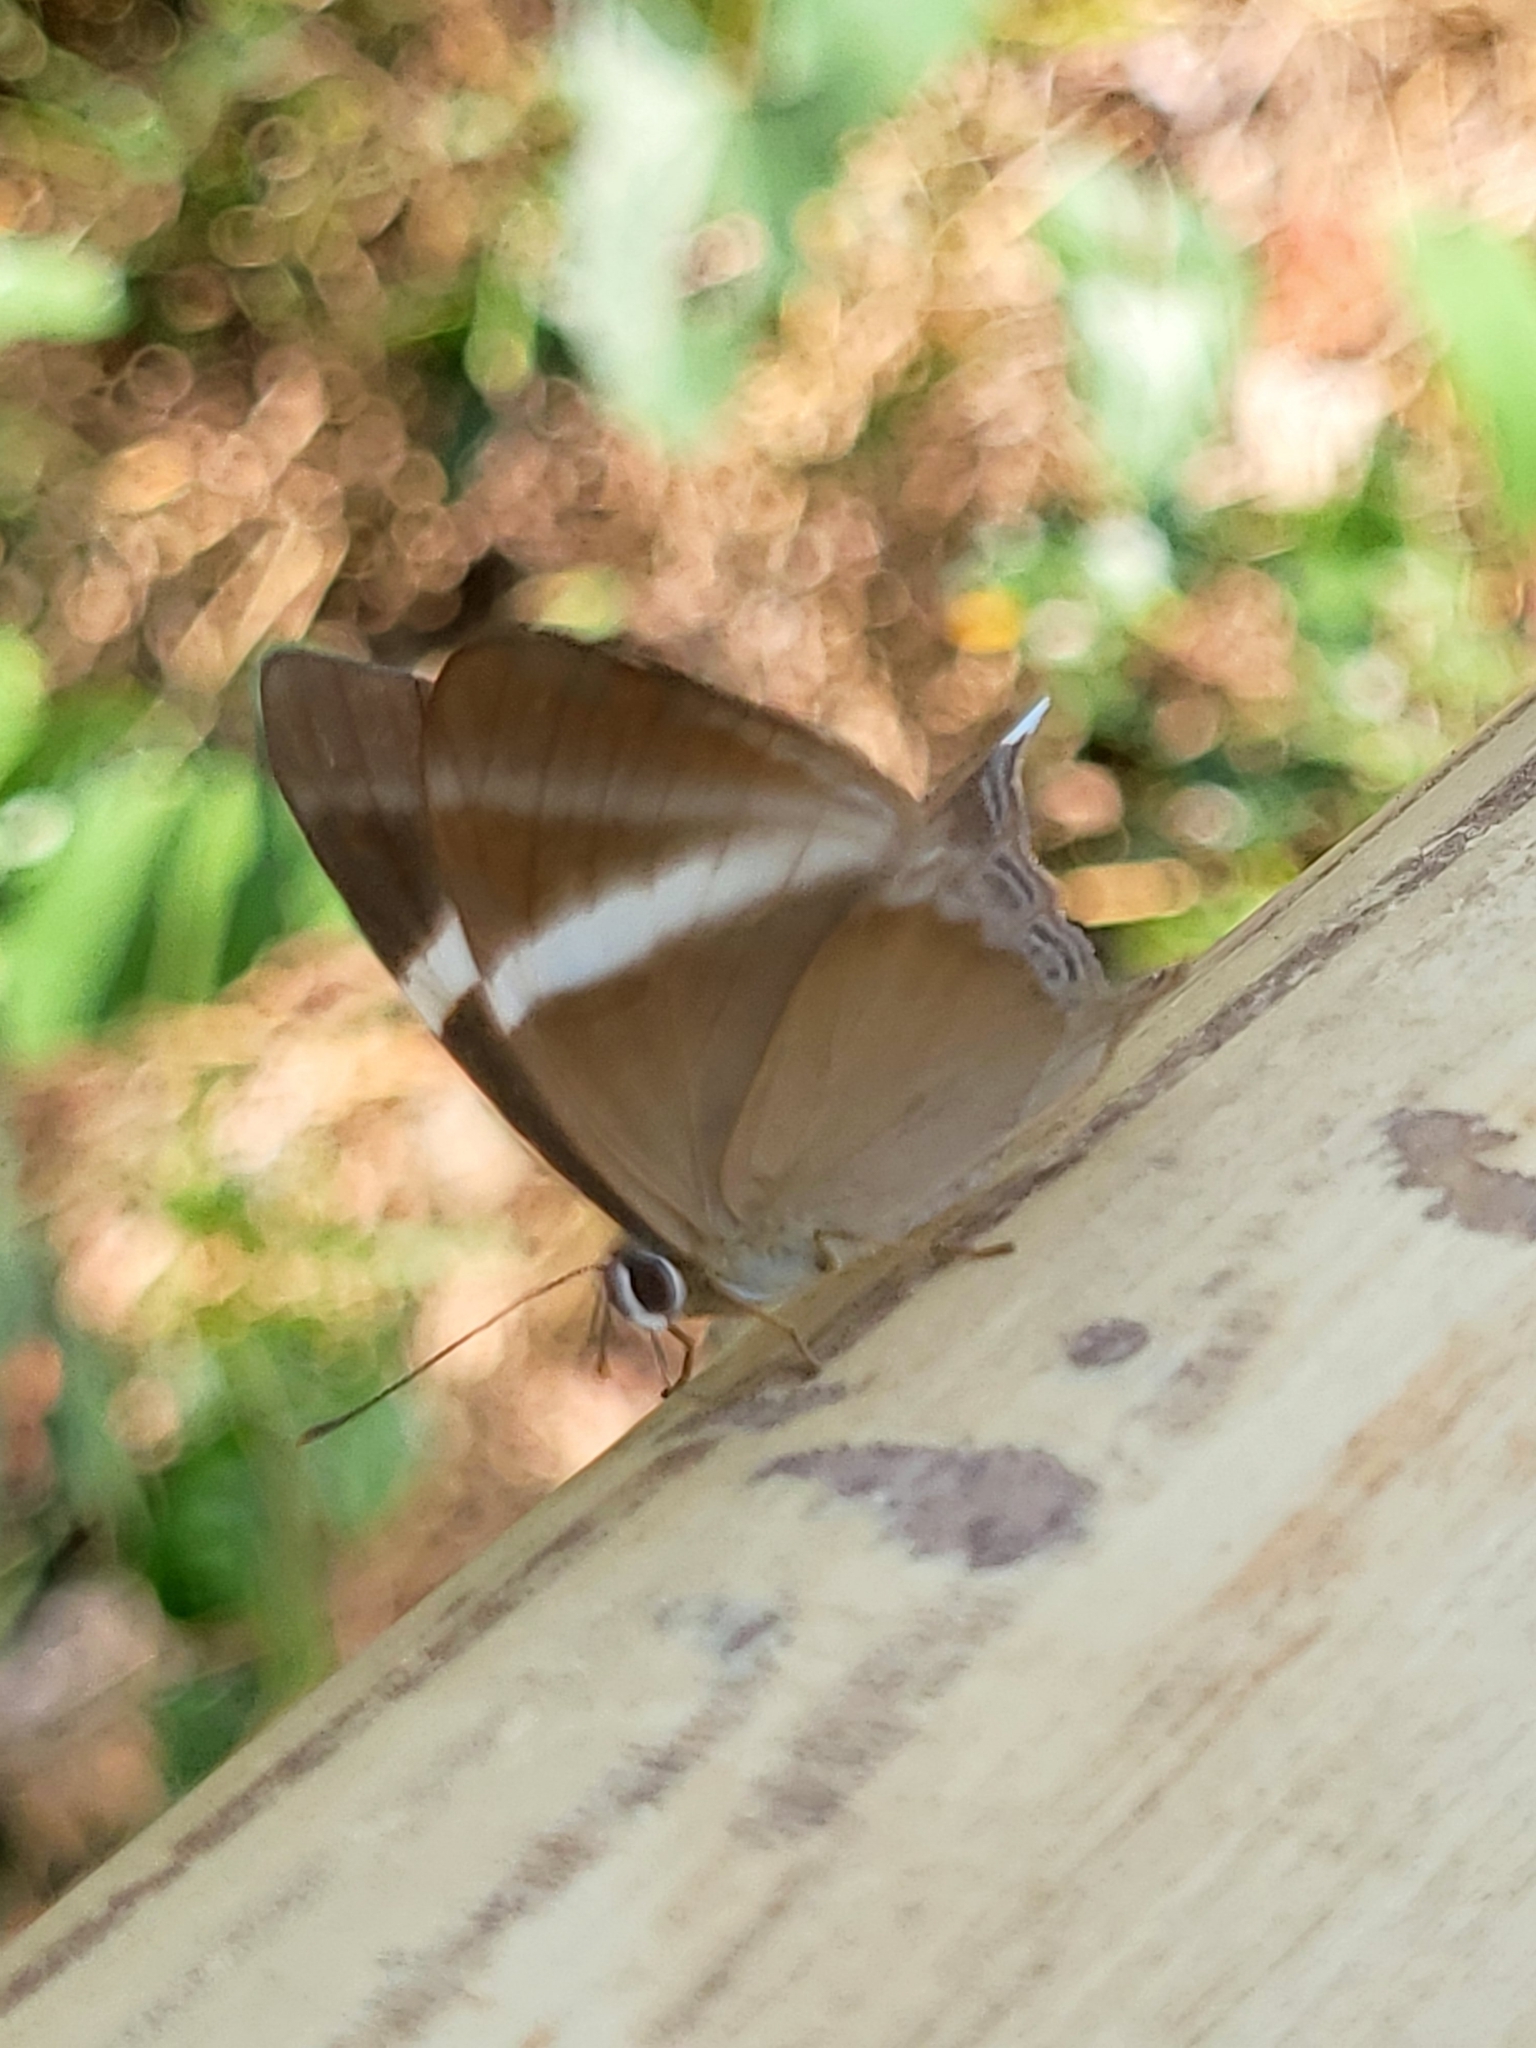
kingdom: Animalia
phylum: Arthropoda
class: Insecta
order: Lepidoptera
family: Lycaenidae
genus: Abisara
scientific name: Abisara neophron
